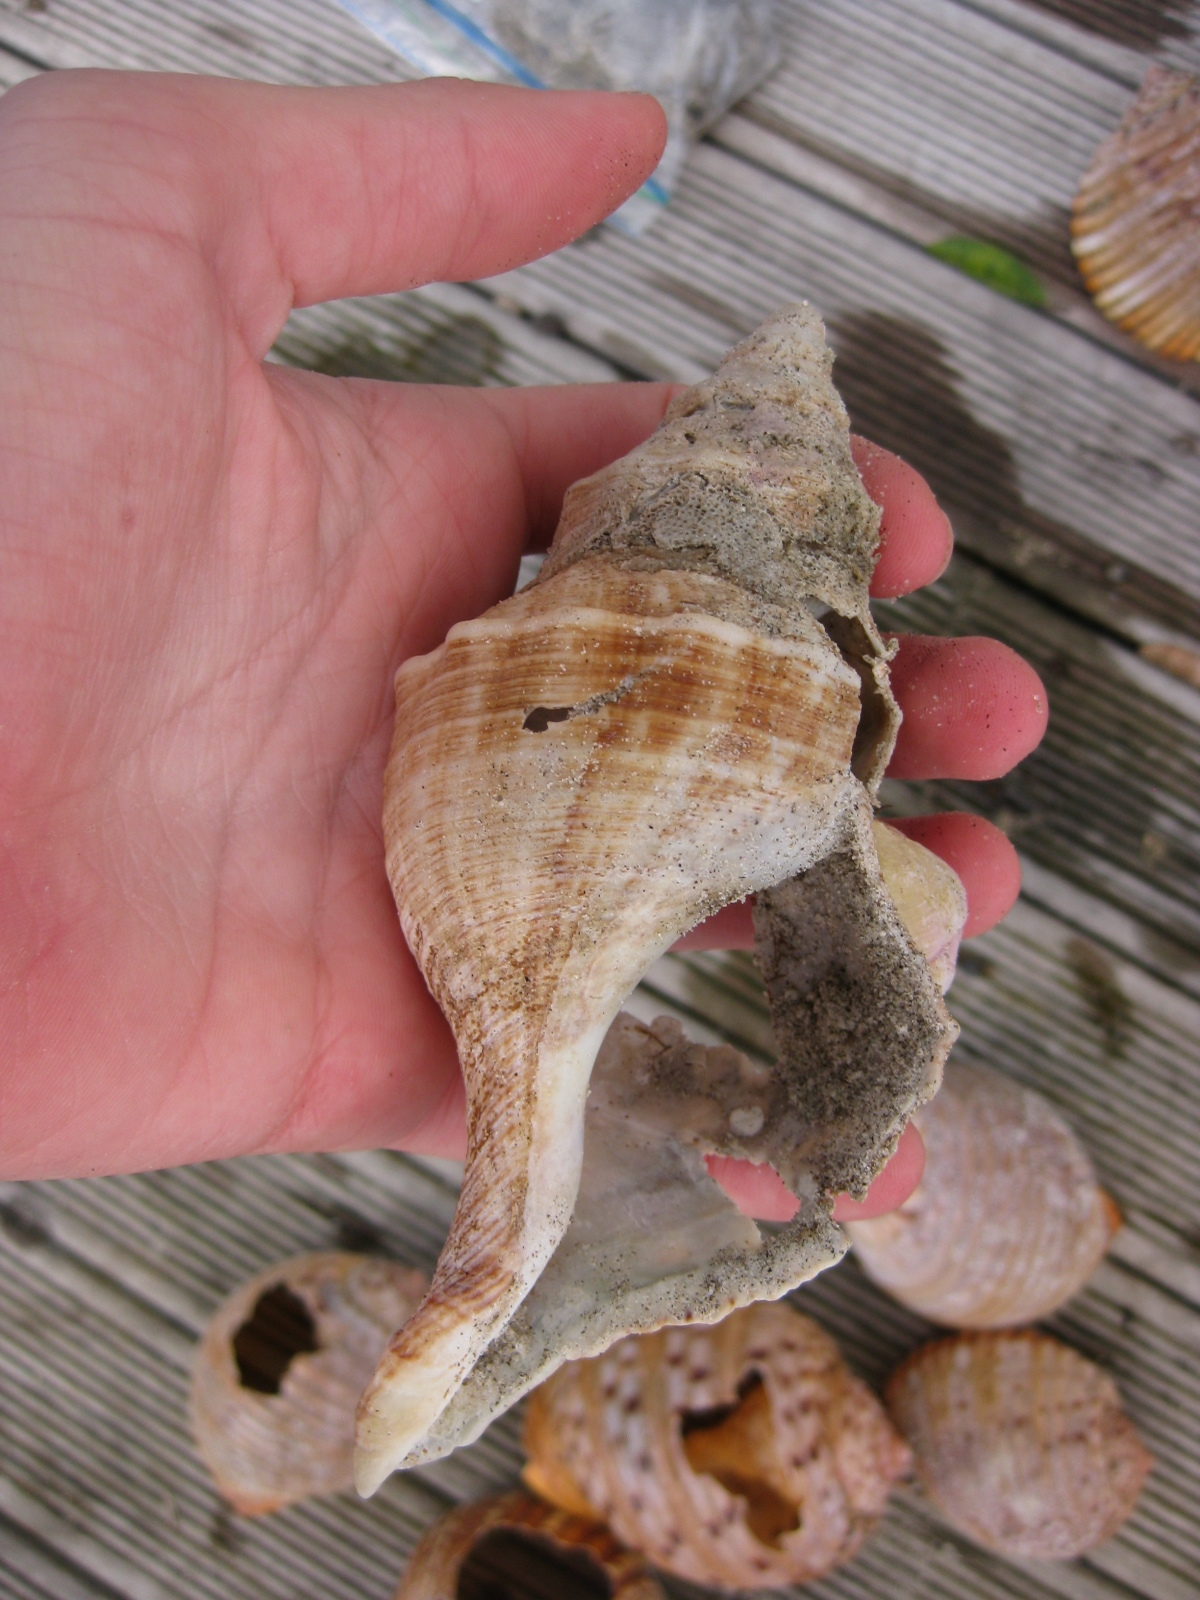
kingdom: Animalia
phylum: Mollusca
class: Gastropoda
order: Neogastropoda
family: Austrosiphonidae
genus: Penion
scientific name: Penion cuvierianus
